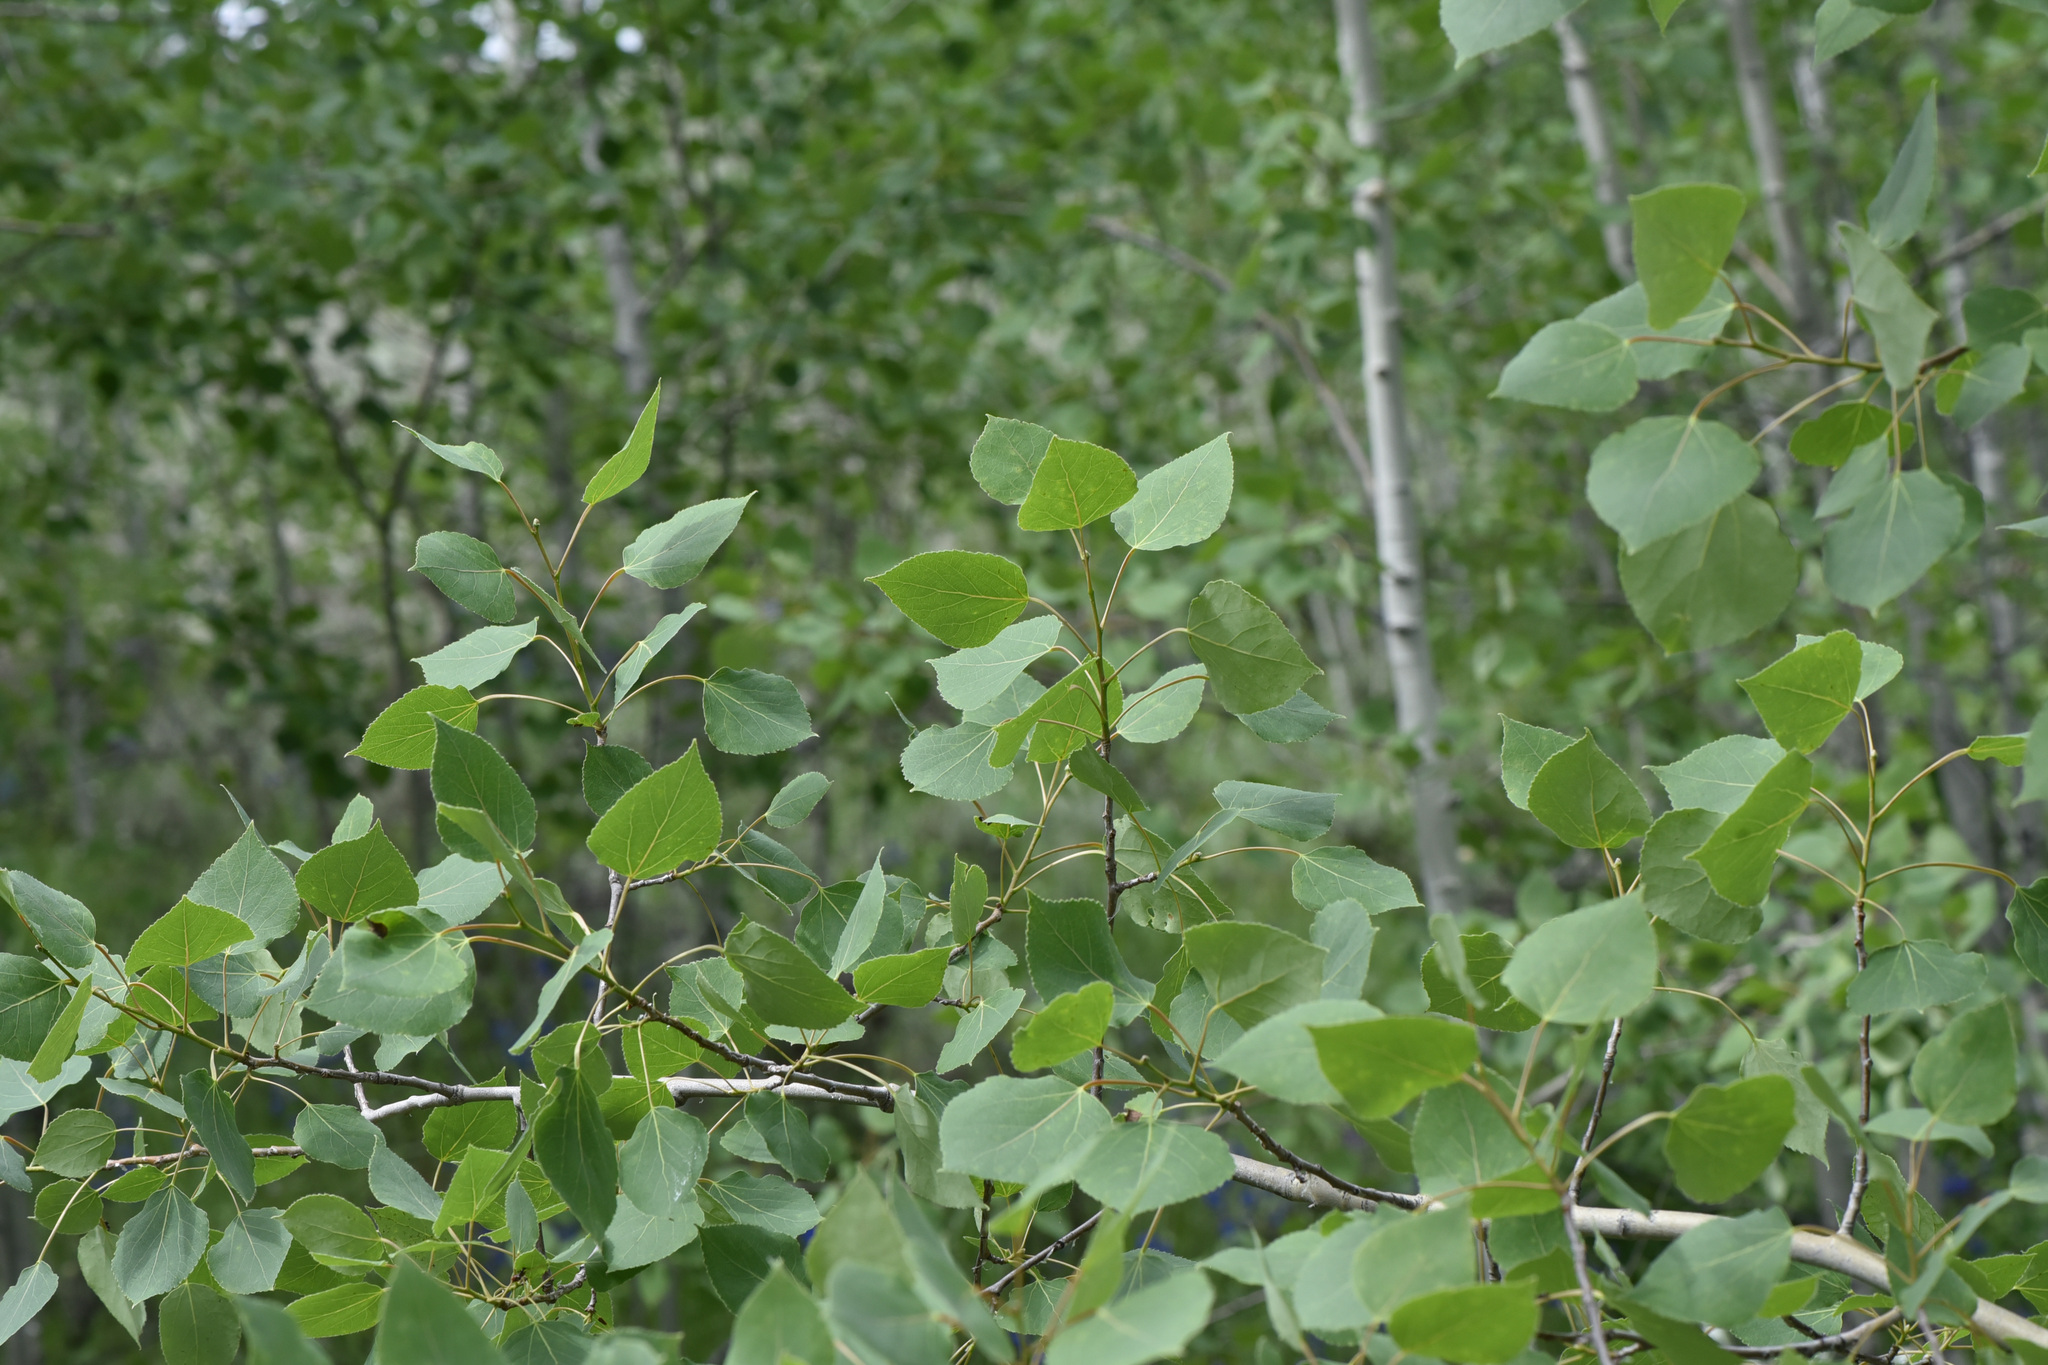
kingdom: Plantae
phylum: Tracheophyta
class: Magnoliopsida
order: Malpighiales
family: Salicaceae
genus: Populus
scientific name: Populus tremuloides
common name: Quaking aspen
